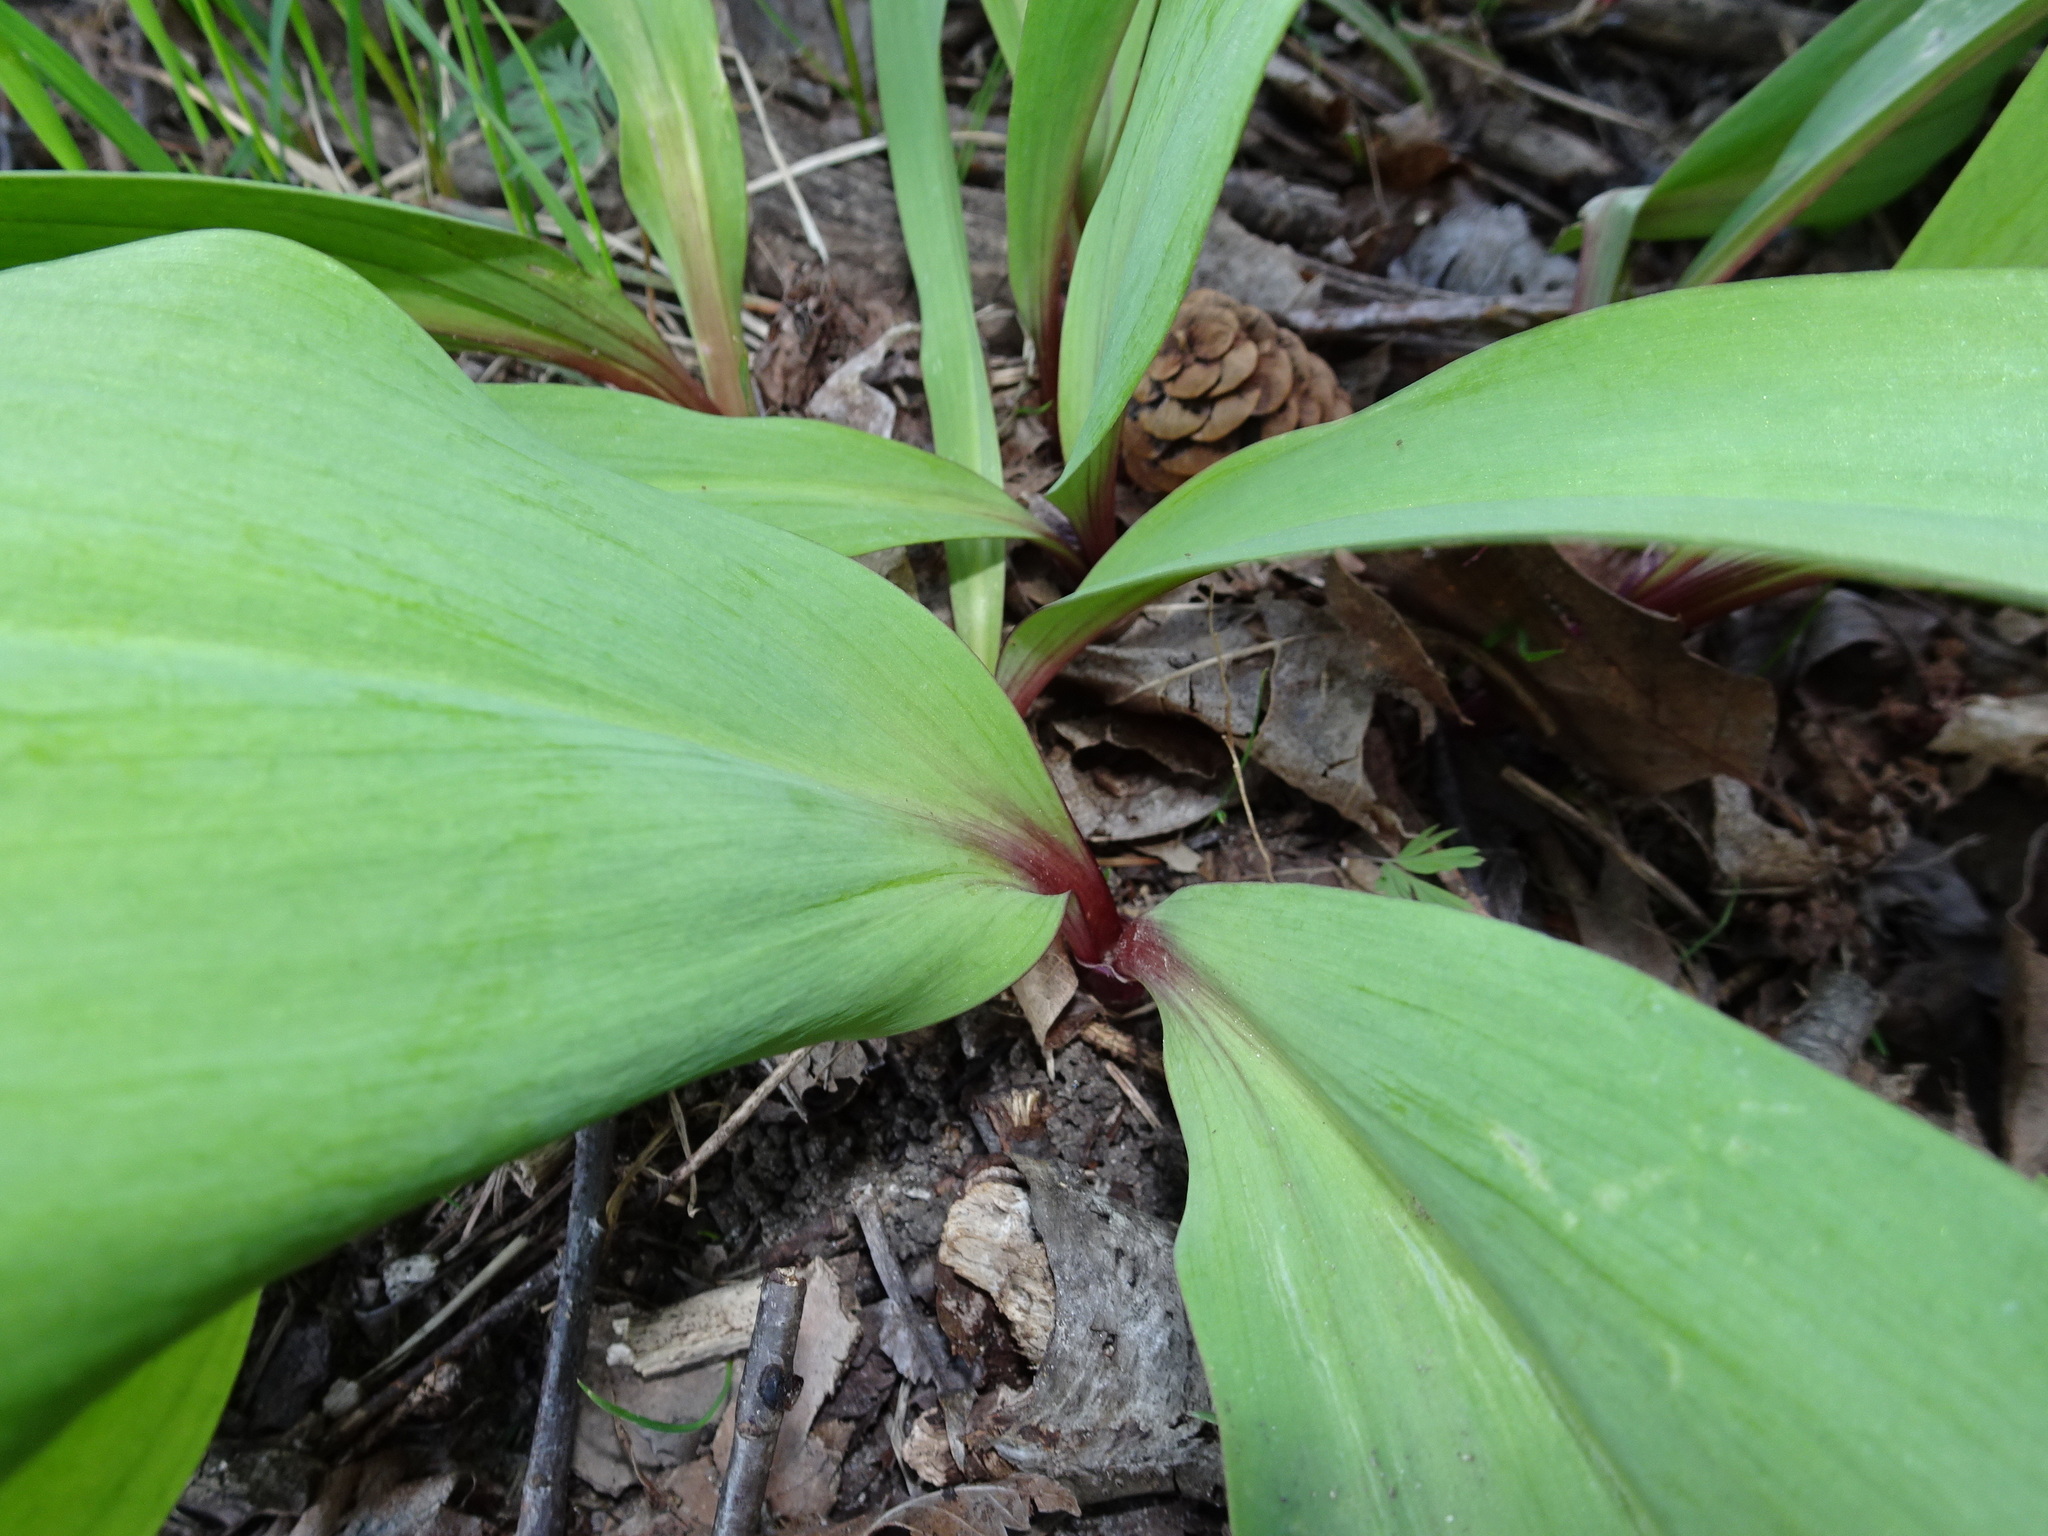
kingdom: Plantae
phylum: Tracheophyta
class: Liliopsida
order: Asparagales
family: Amaryllidaceae
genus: Allium
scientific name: Allium tricoccum
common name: Ramp
